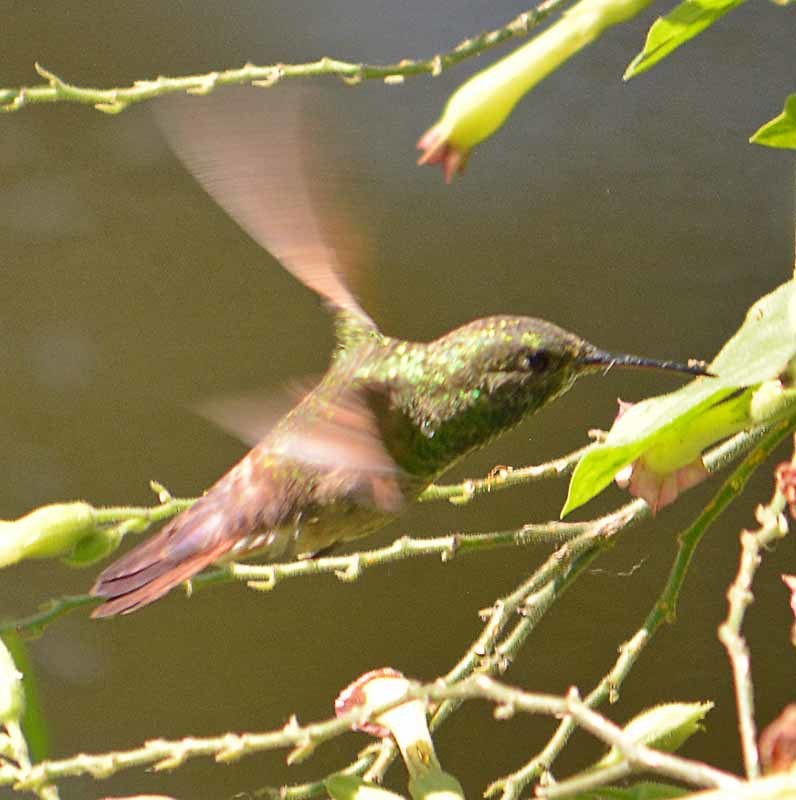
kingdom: Animalia
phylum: Chordata
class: Aves
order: Apodiformes
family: Trochilidae
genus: Saucerottia
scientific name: Saucerottia beryllina
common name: Berylline hummingbird
